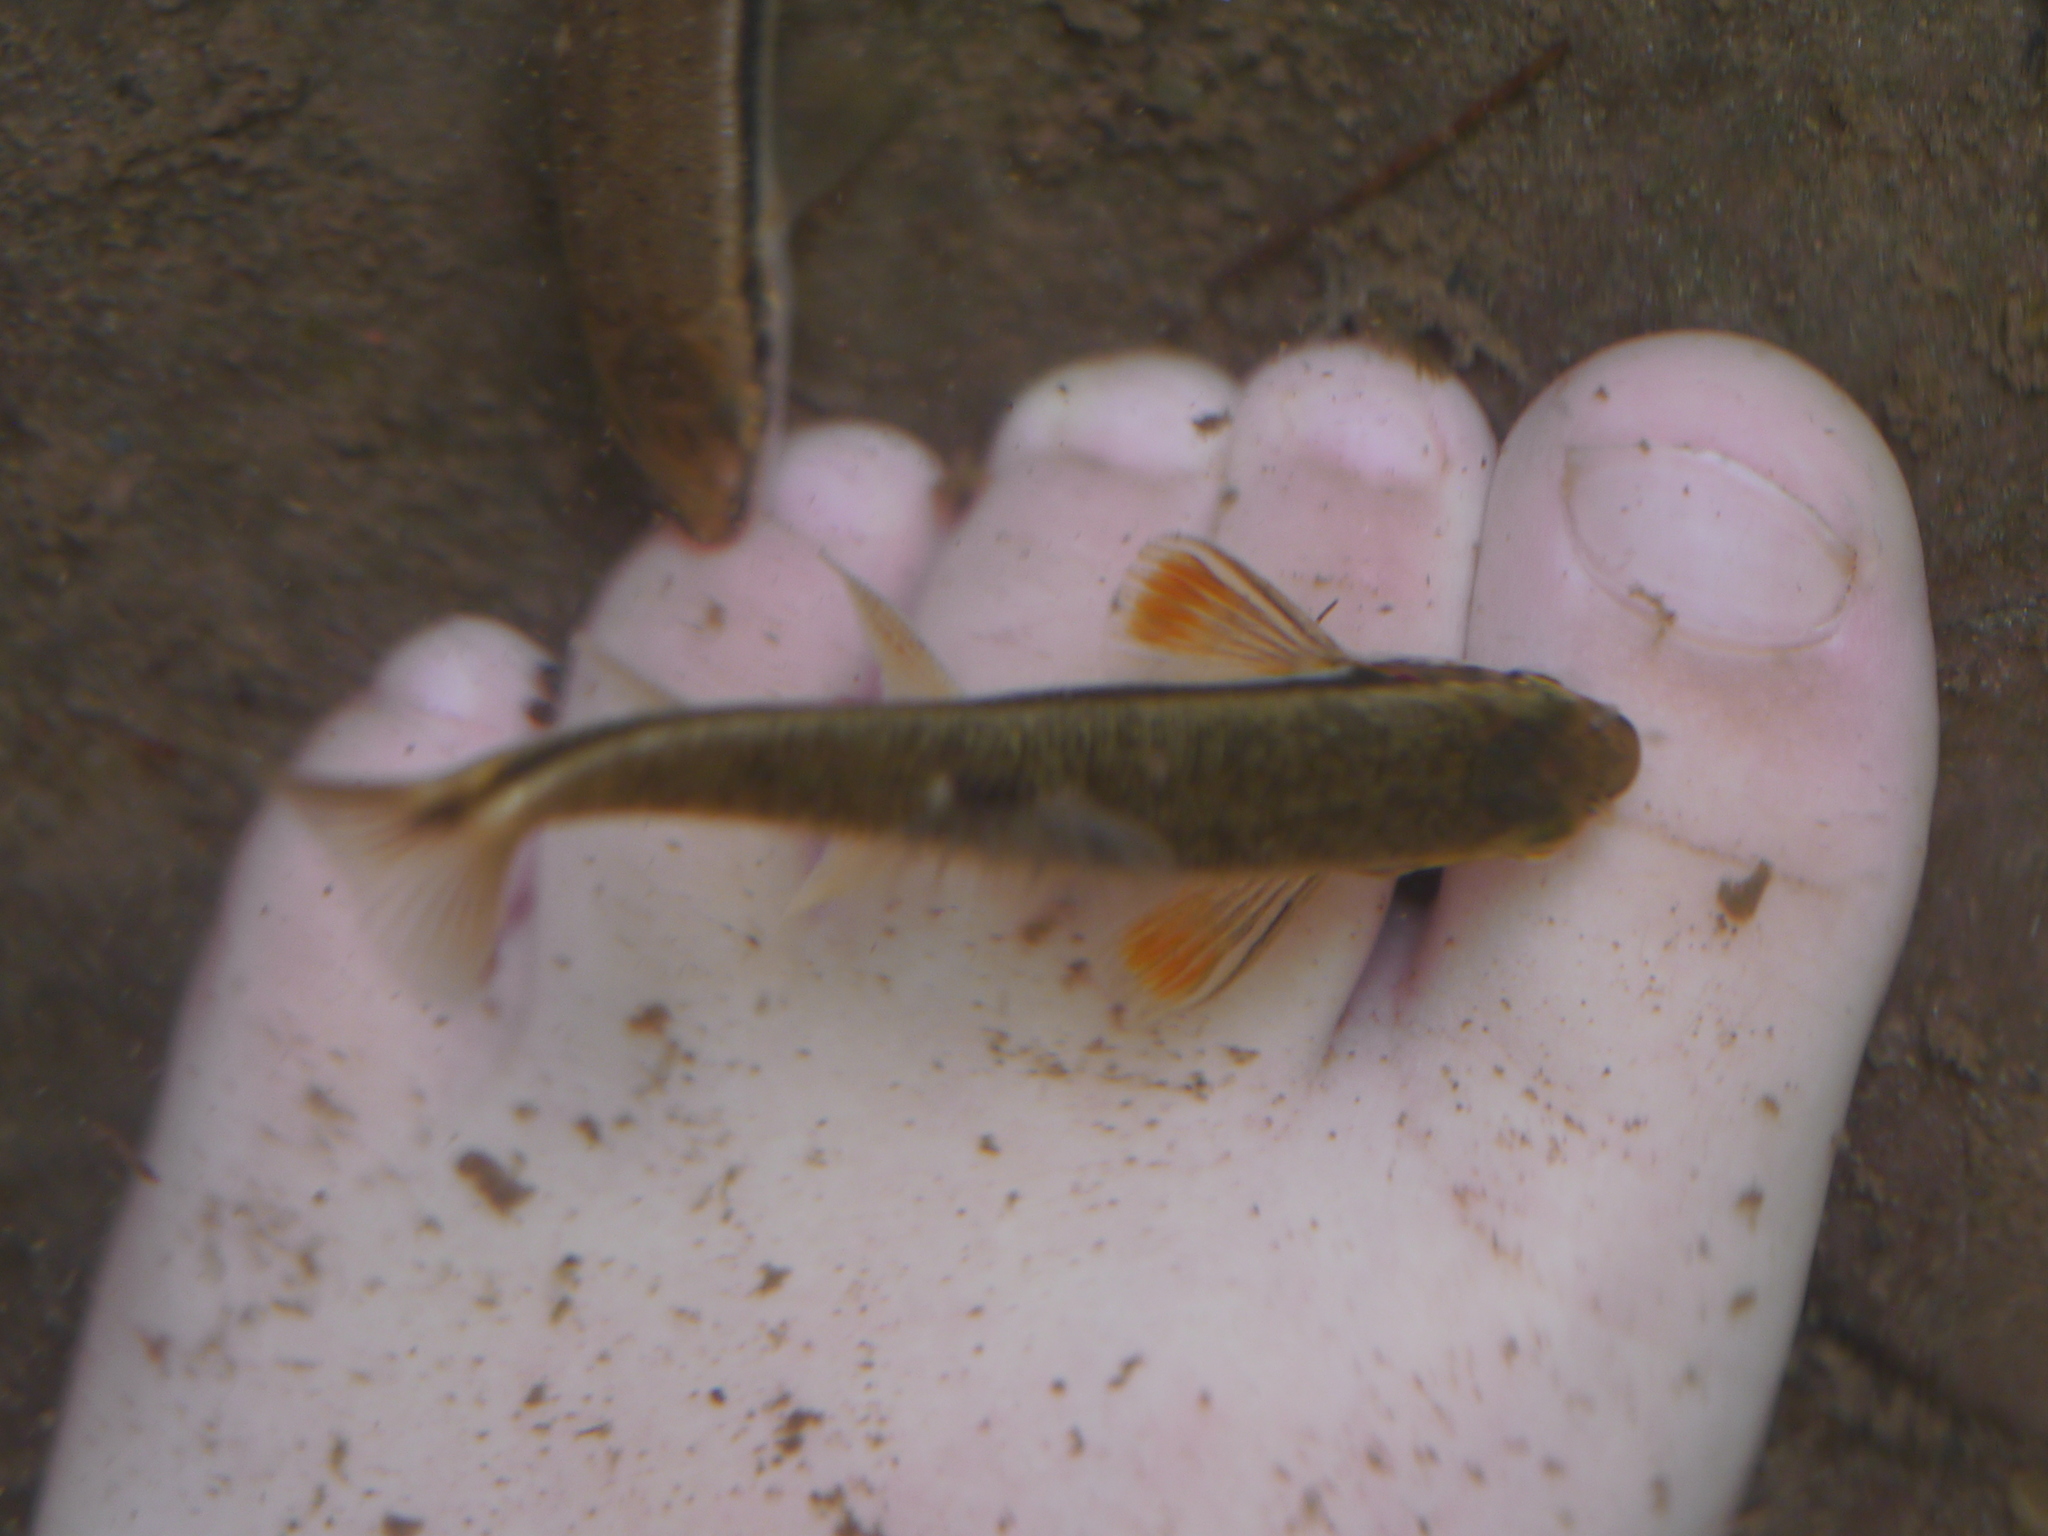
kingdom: Animalia
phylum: Chordata
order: Cypriniformes
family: Cyprinidae
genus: Rhinichthys
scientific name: Rhinichthys atratulus
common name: Eastern blacknose dace
